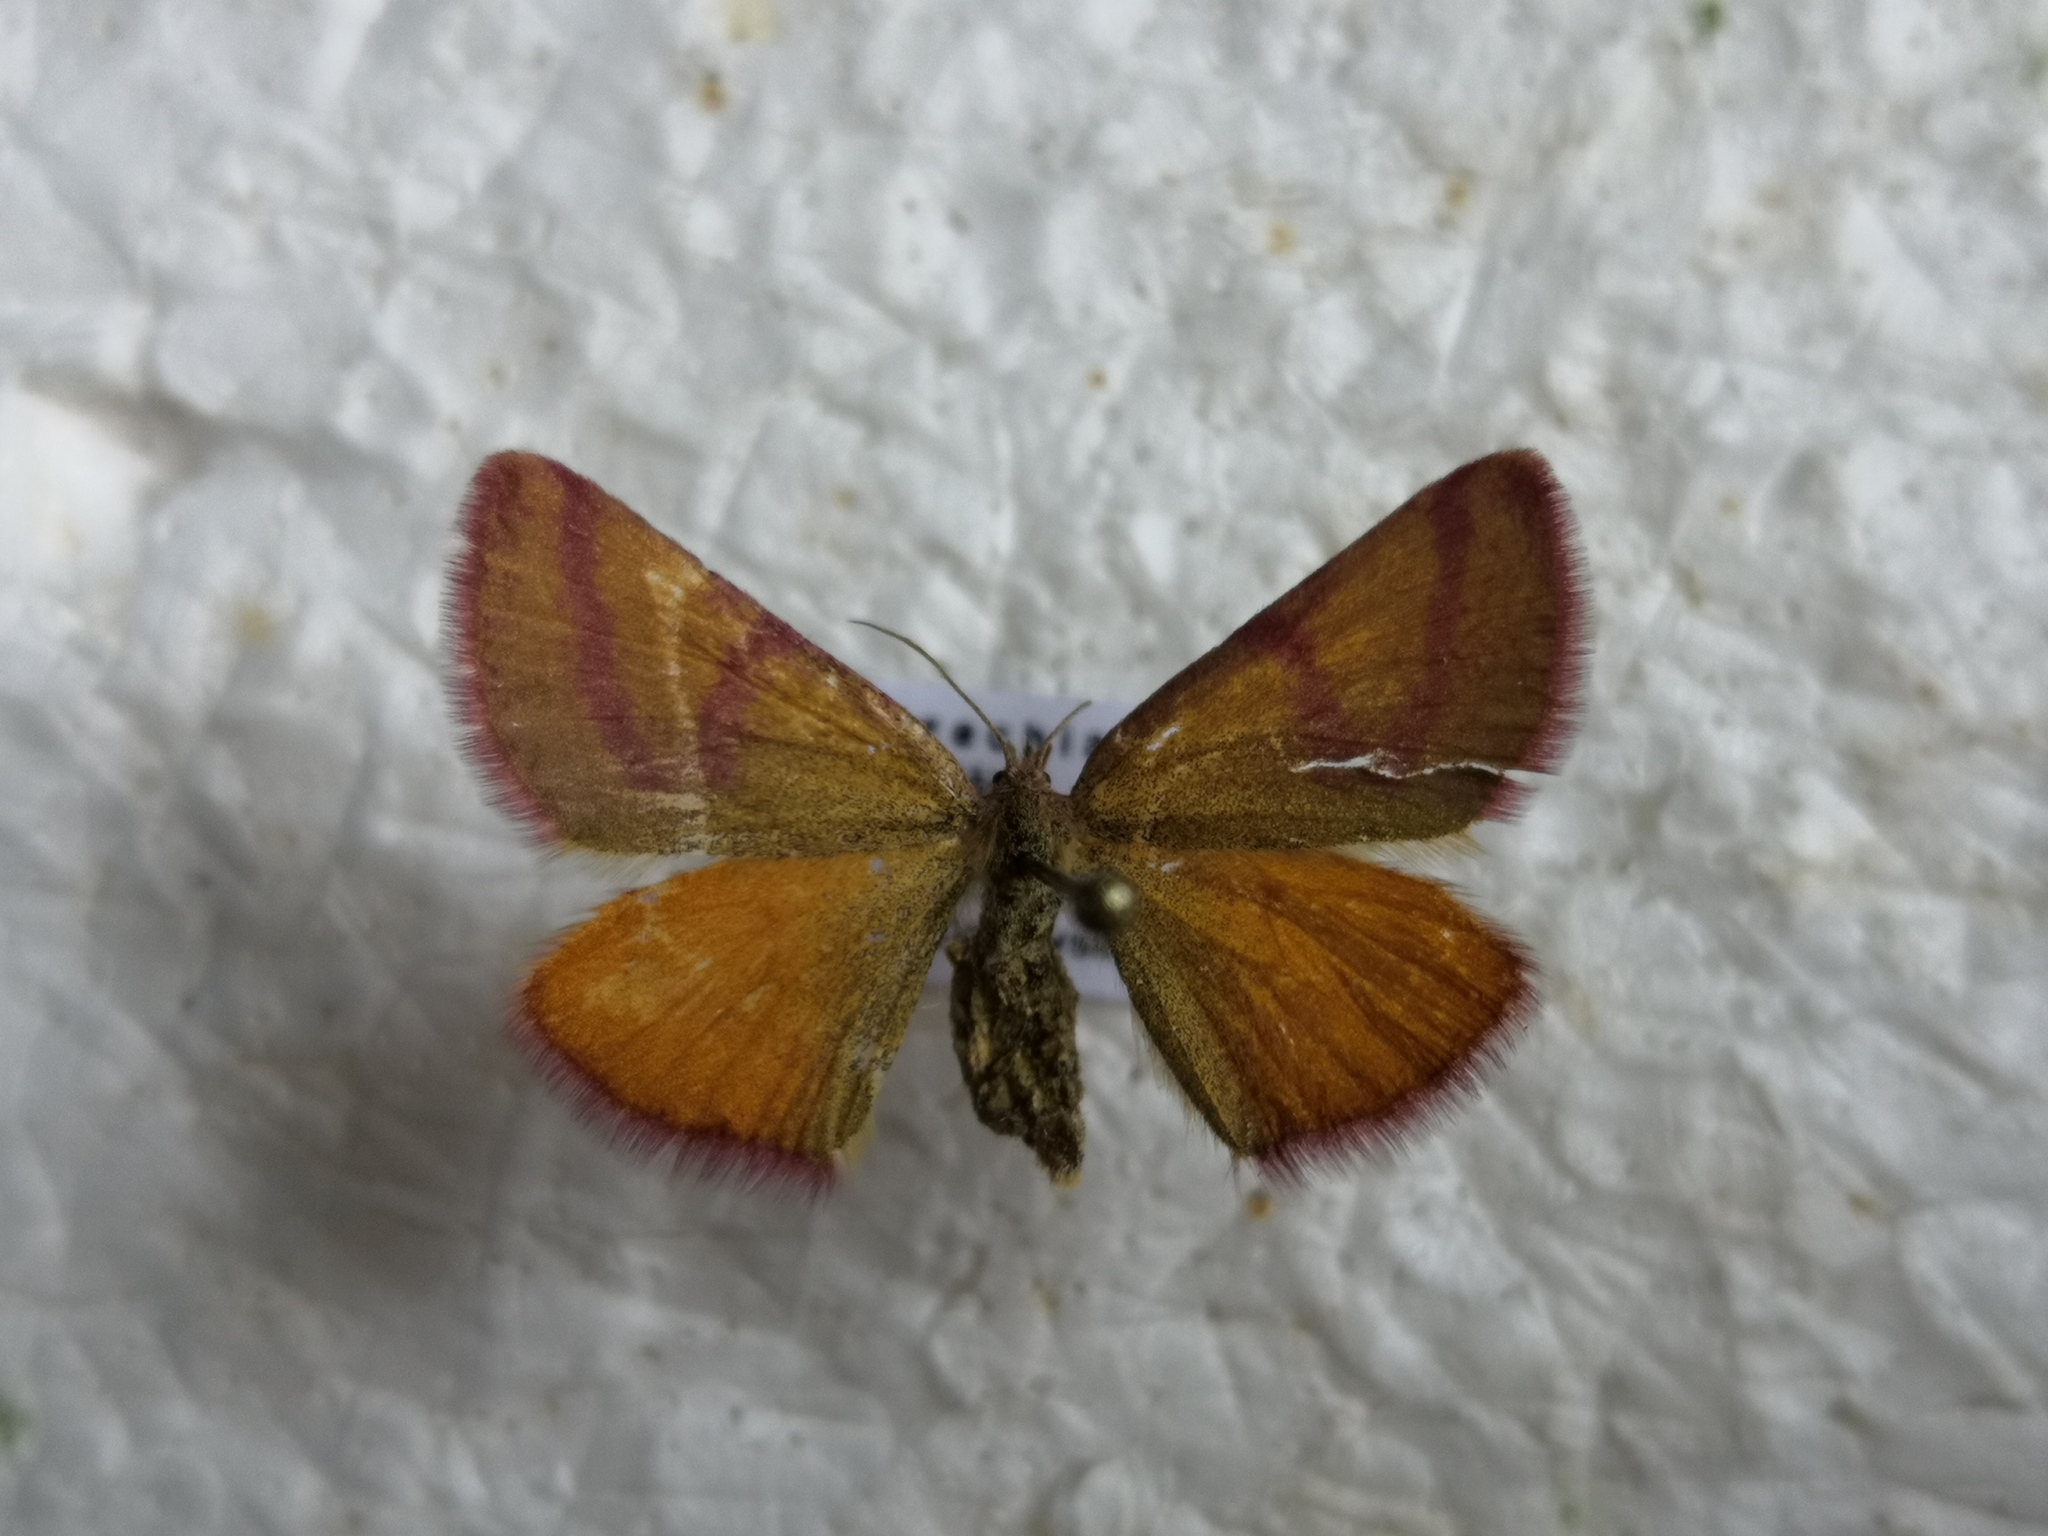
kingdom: Animalia
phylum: Arthropoda
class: Insecta
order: Lepidoptera
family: Geometridae
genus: Lythria
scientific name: Lythria purpuraria
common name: Purple-barred yellow
